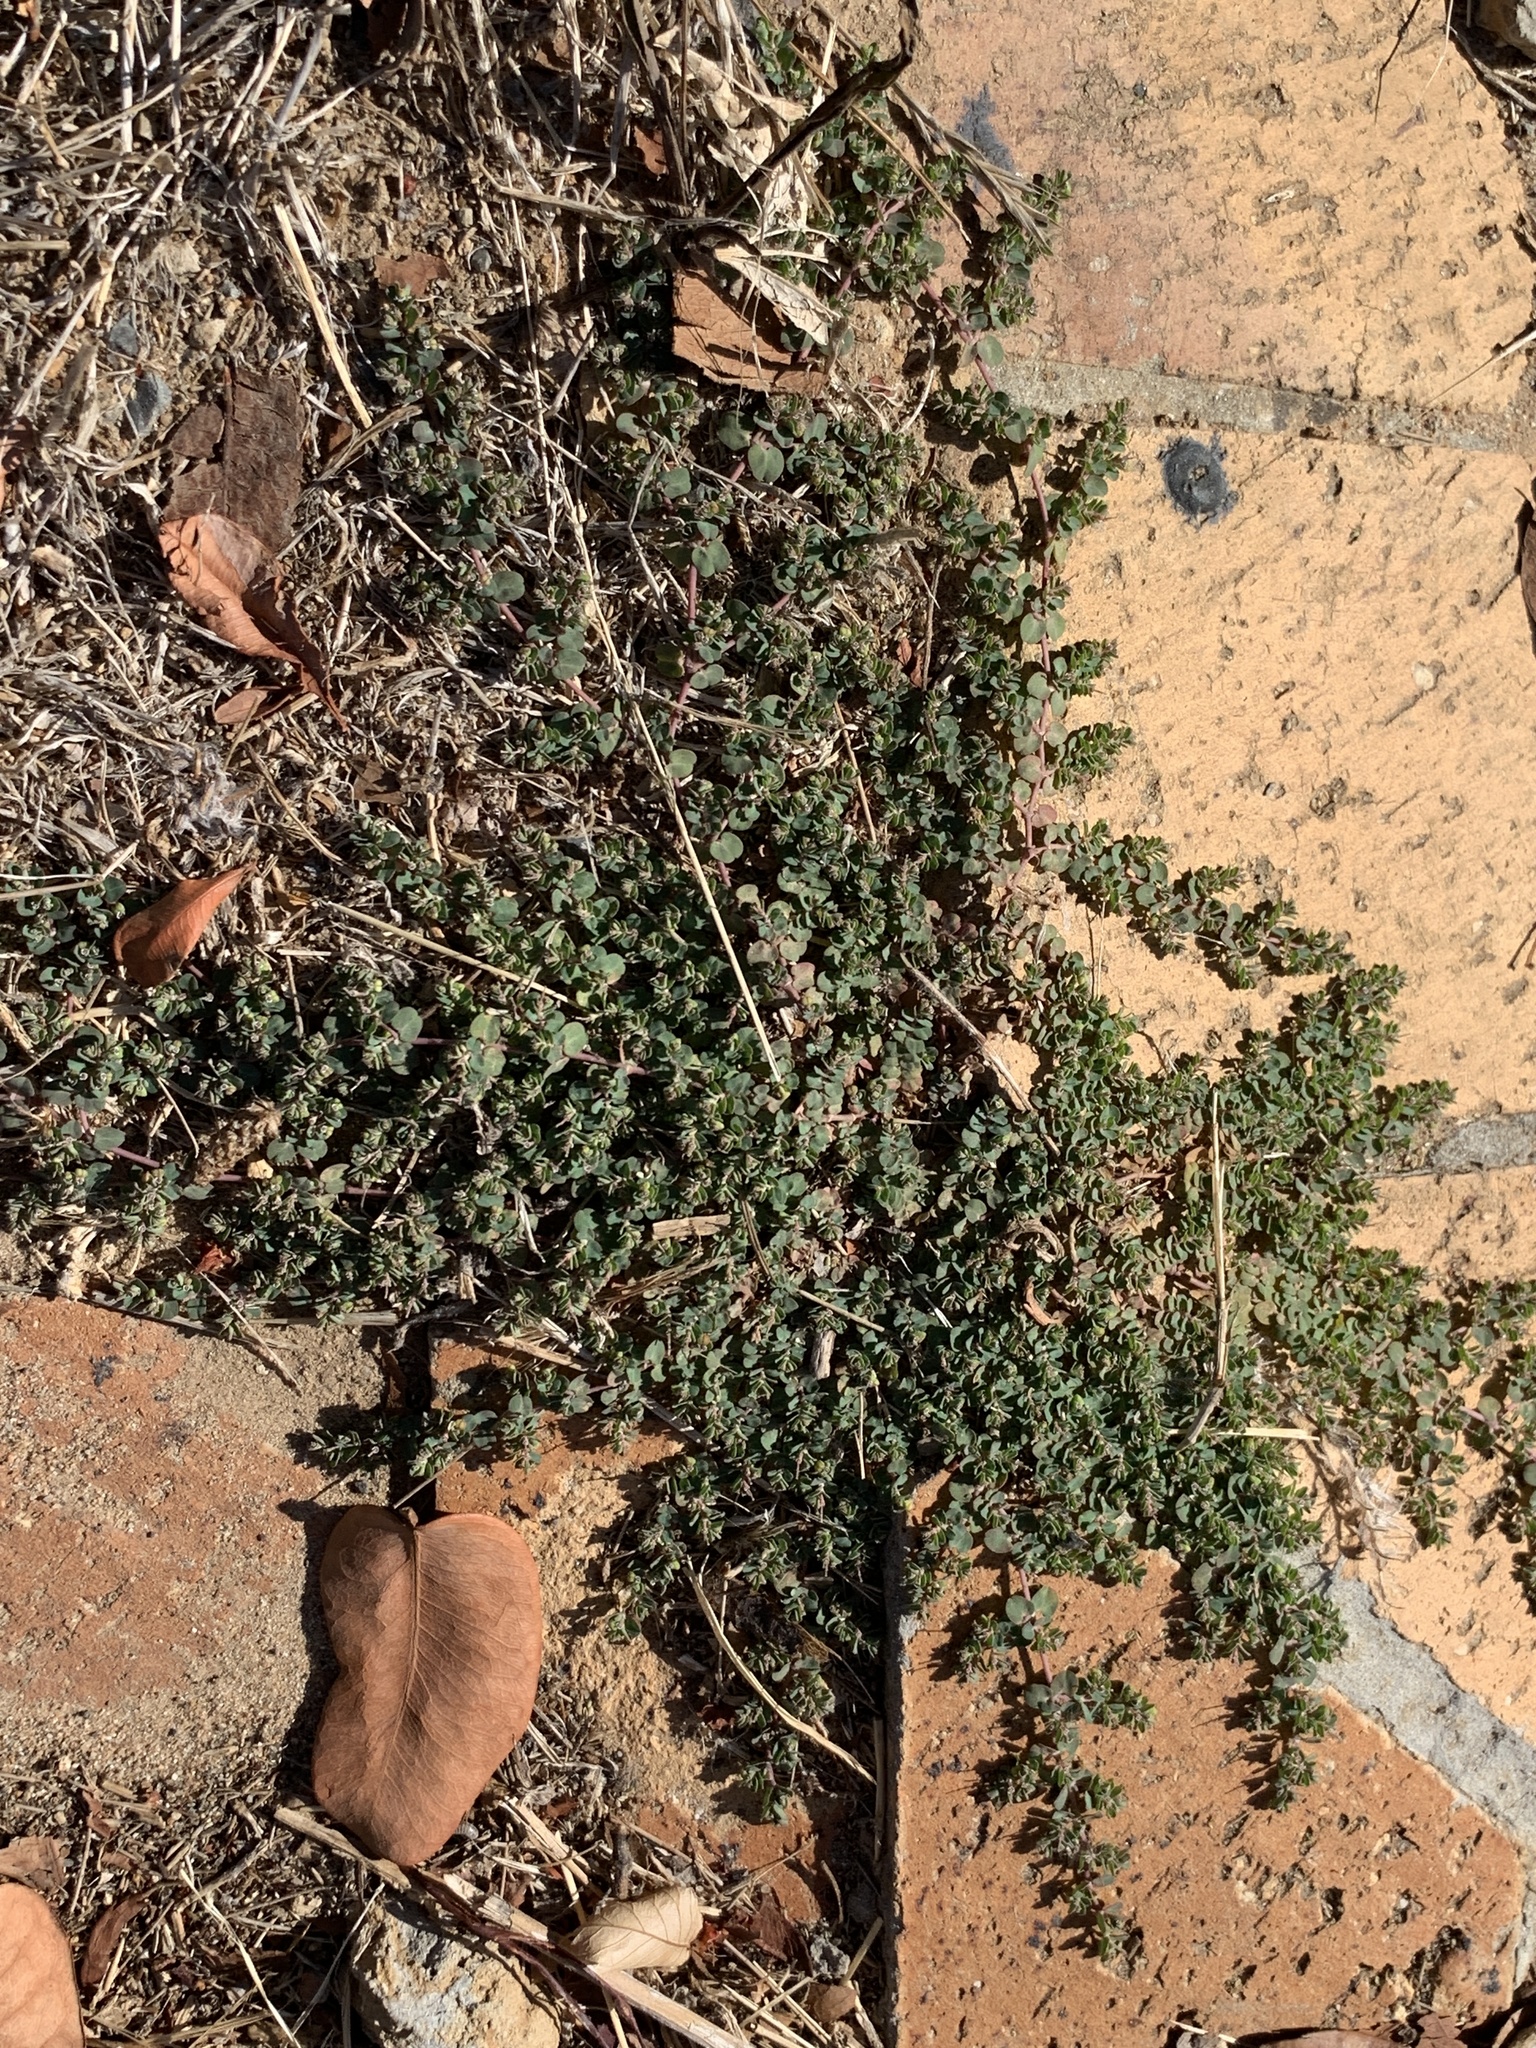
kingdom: Plantae
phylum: Tracheophyta
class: Magnoliopsida
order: Malpighiales
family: Euphorbiaceae
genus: Euphorbia
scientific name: Euphorbia serpens
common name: Matted sandmat
